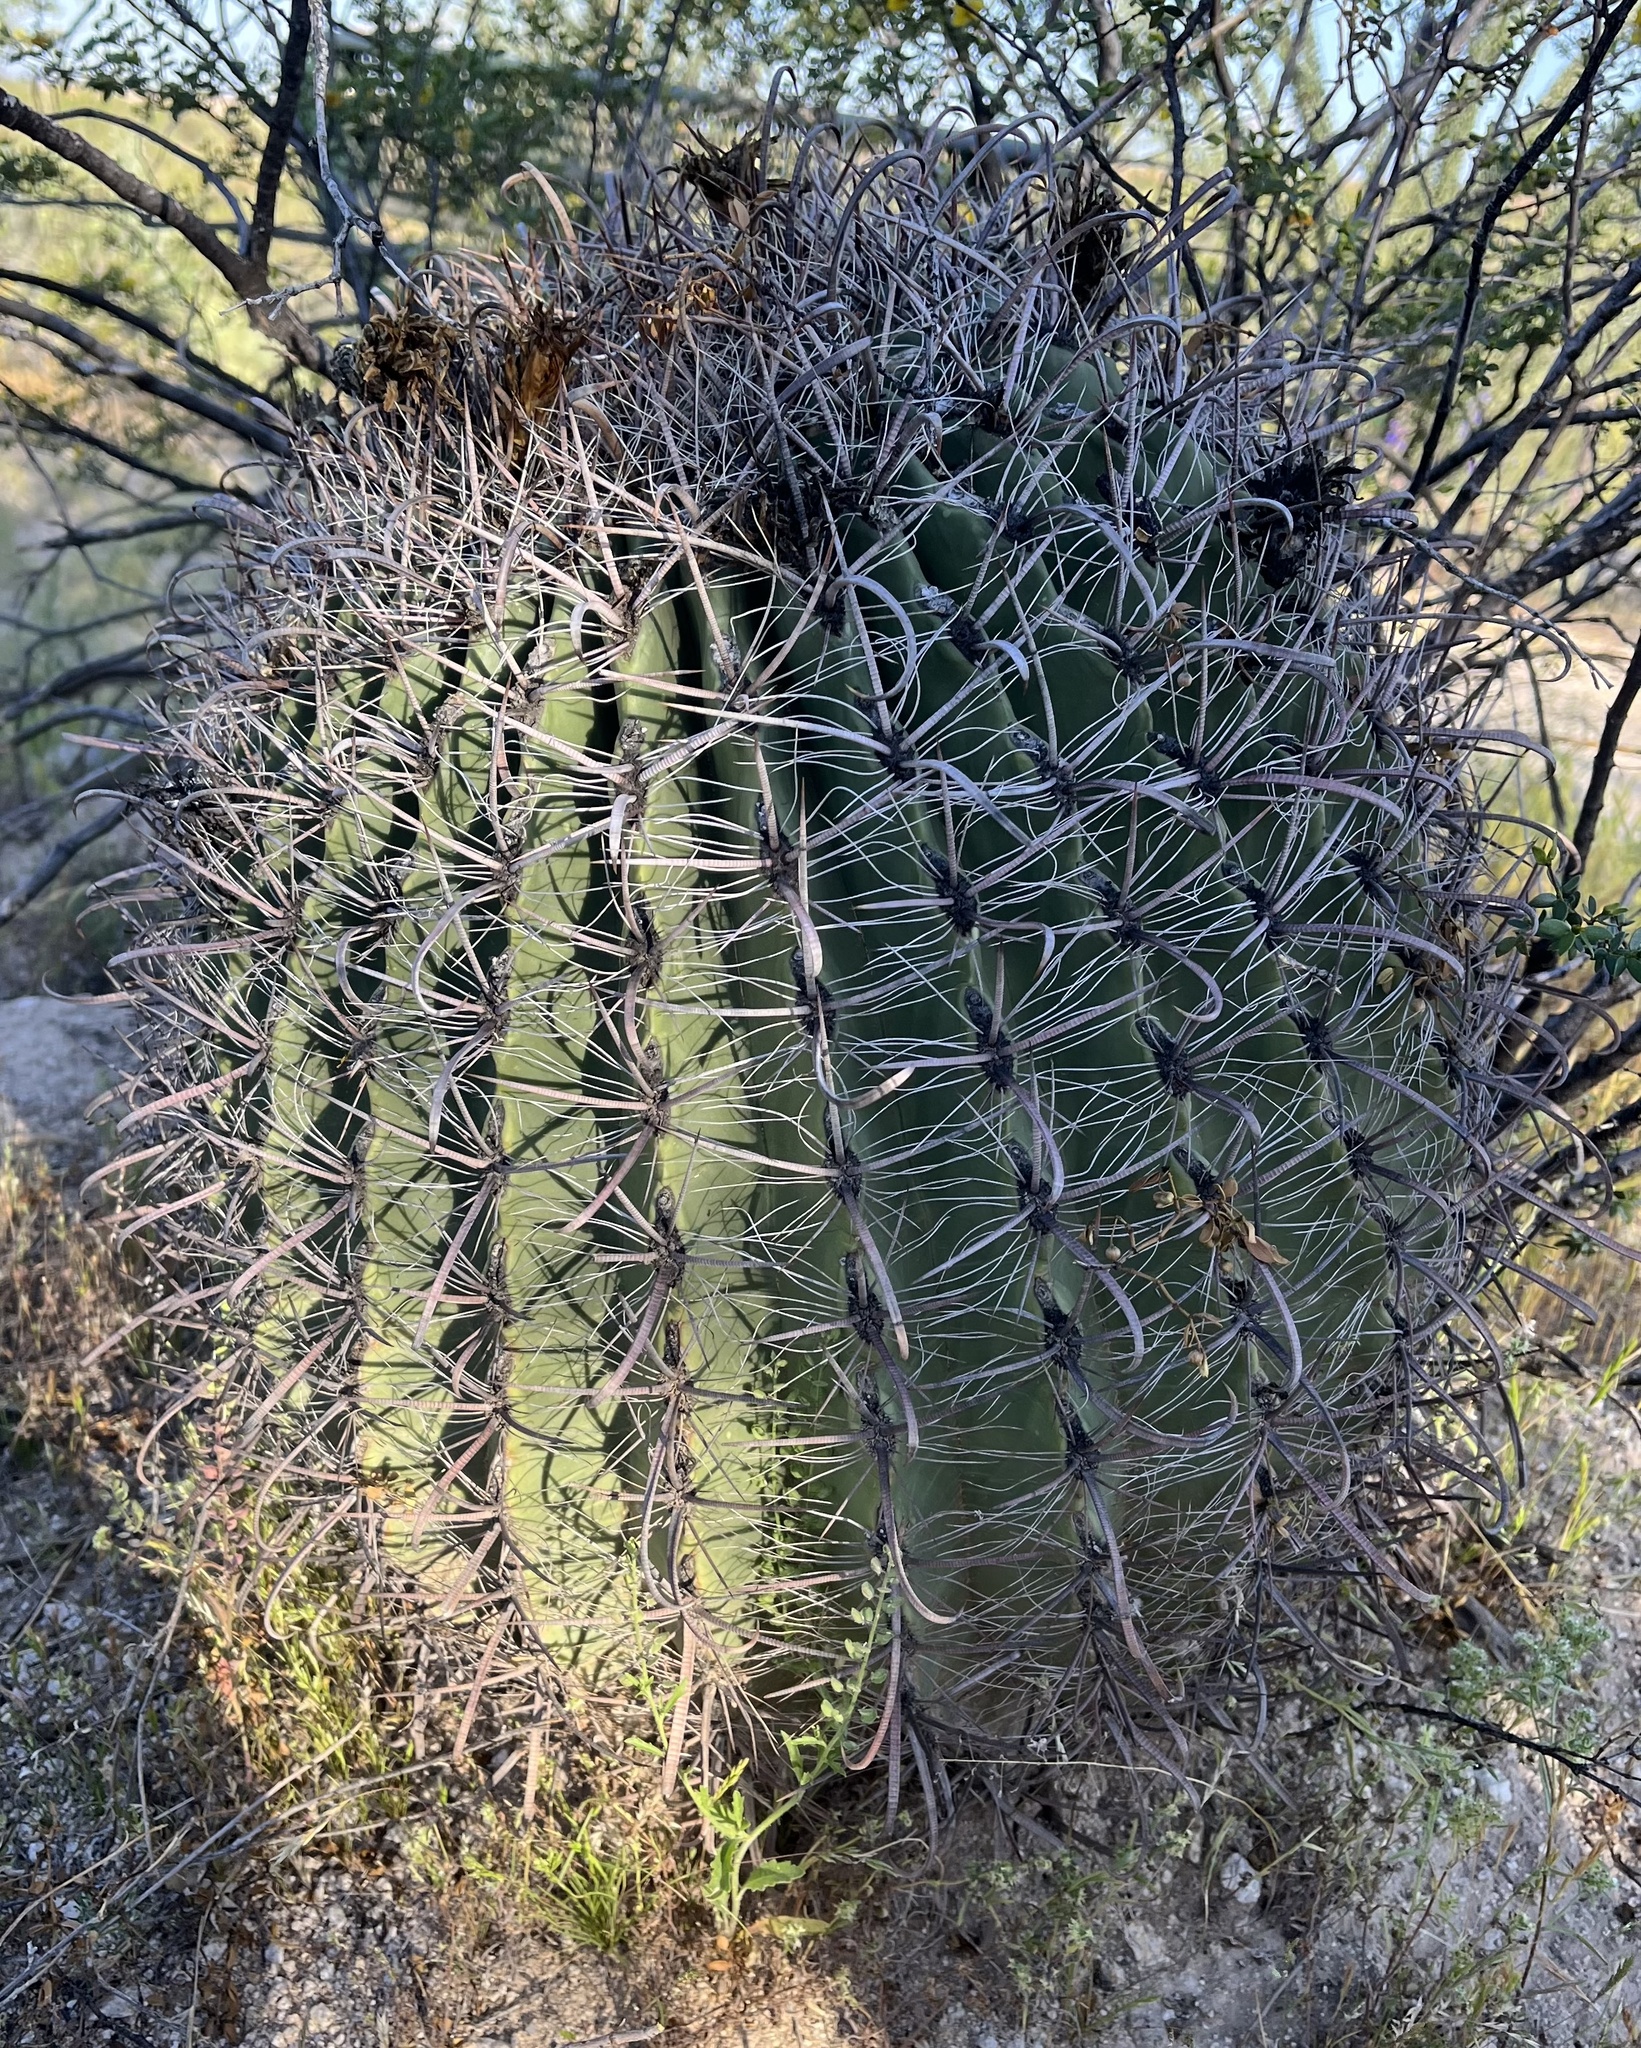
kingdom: Plantae
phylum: Tracheophyta
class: Magnoliopsida
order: Caryophyllales
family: Cactaceae
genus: Ferocactus
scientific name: Ferocactus wislizeni
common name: Candy barrel cactus
